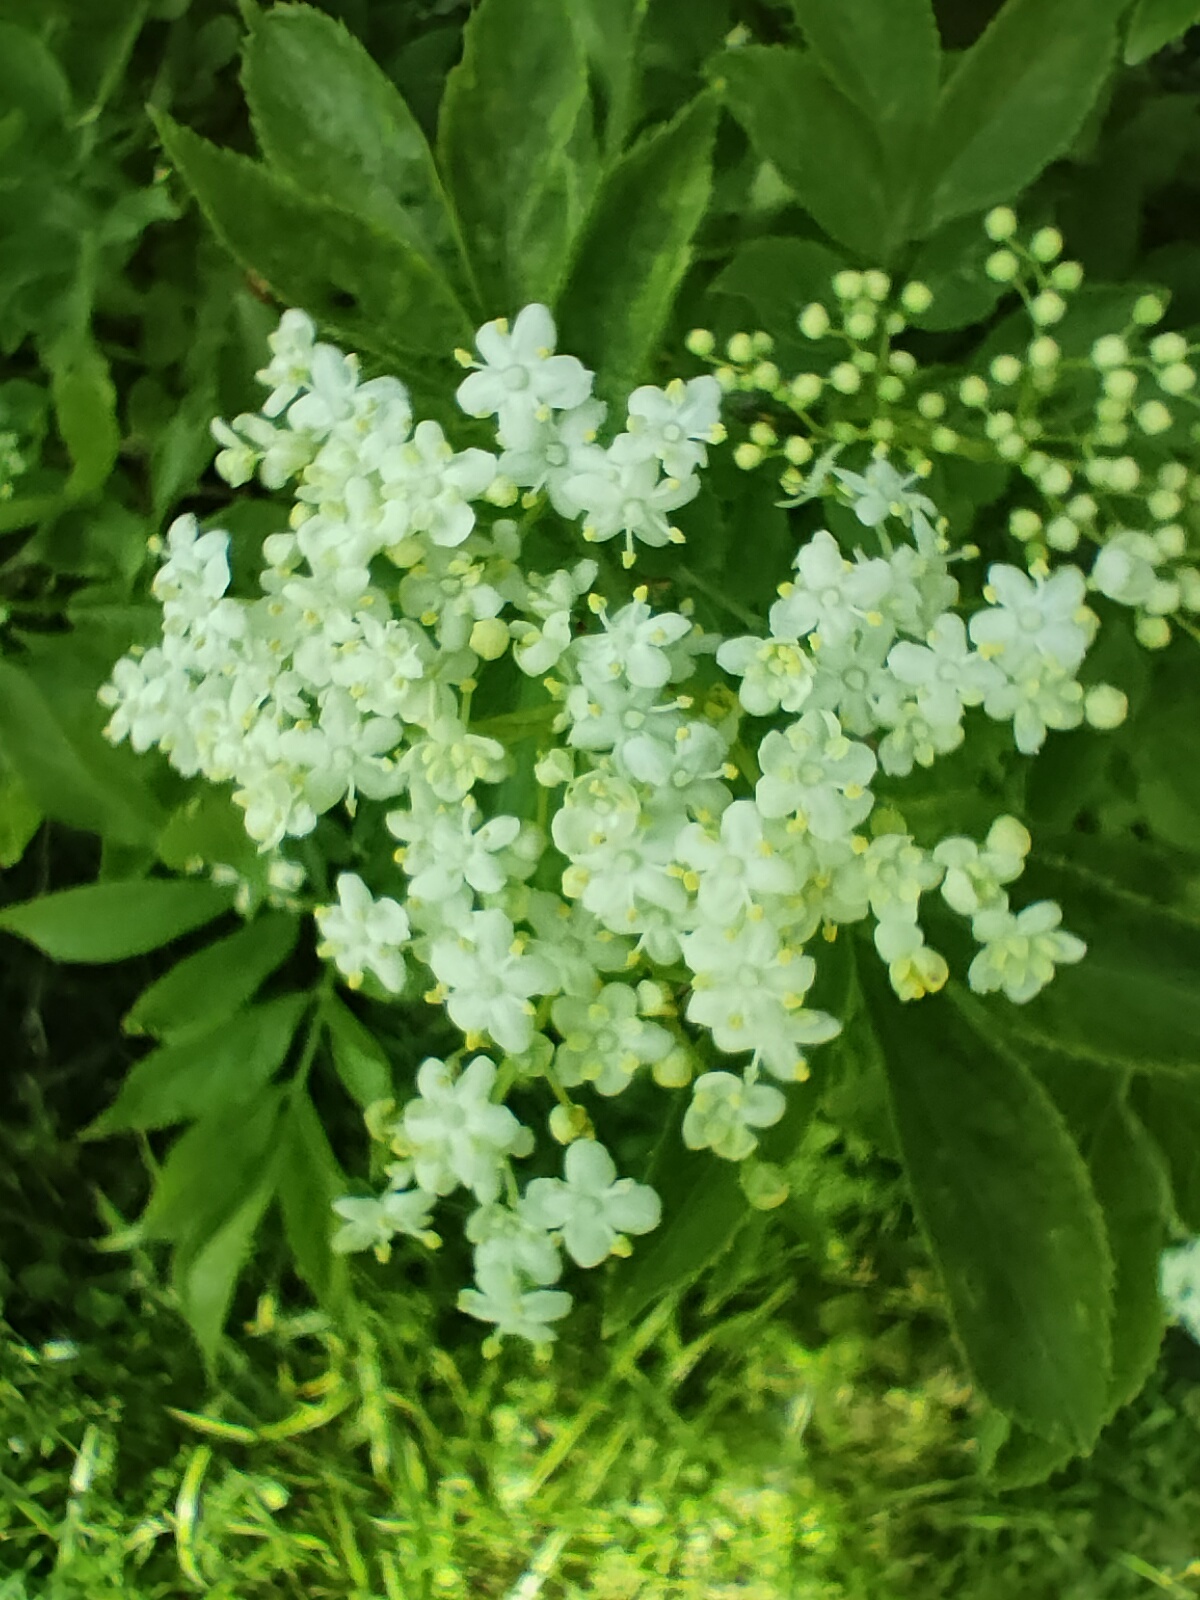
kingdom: Plantae
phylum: Tracheophyta
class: Magnoliopsida
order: Dipsacales
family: Viburnaceae
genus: Sambucus
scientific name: Sambucus nigra
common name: Elder
